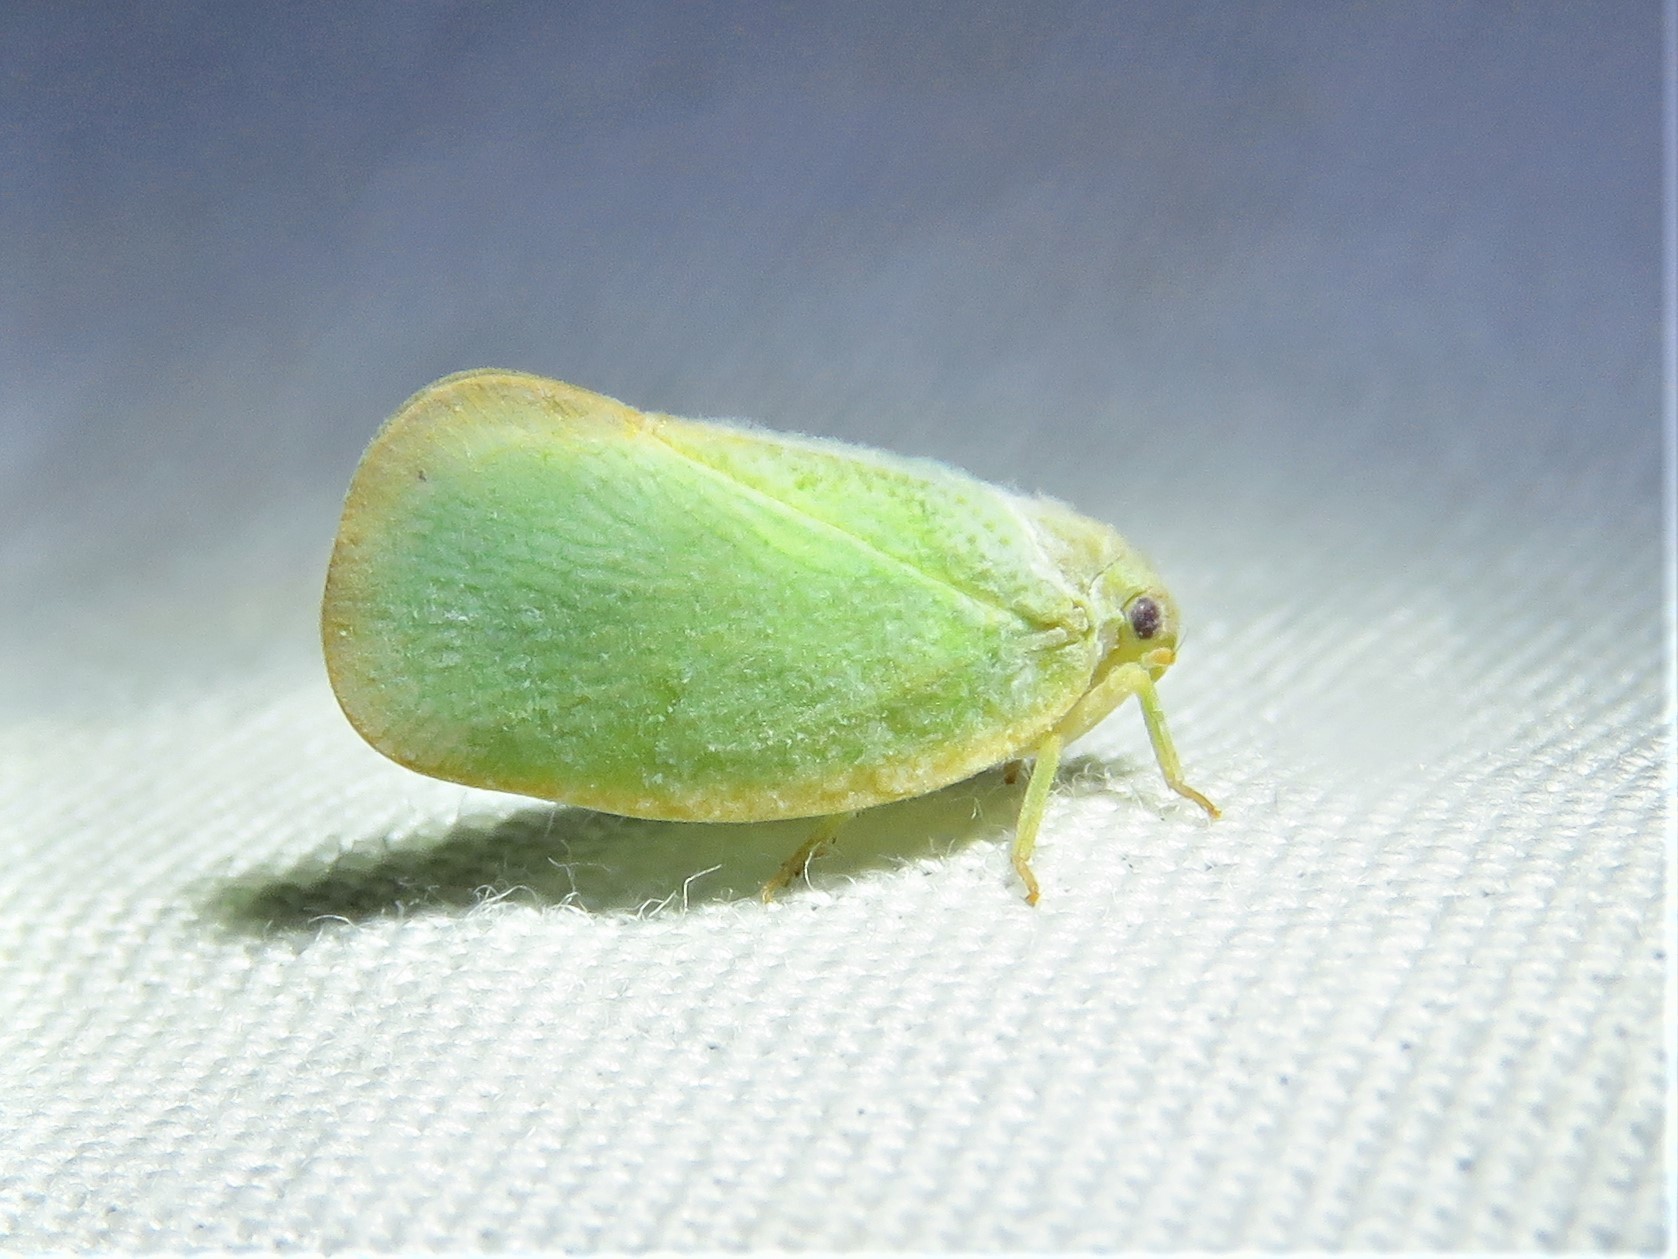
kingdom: Animalia
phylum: Arthropoda
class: Insecta
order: Hemiptera
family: Flatidae
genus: Ormenoides
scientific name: Ormenoides venusta
